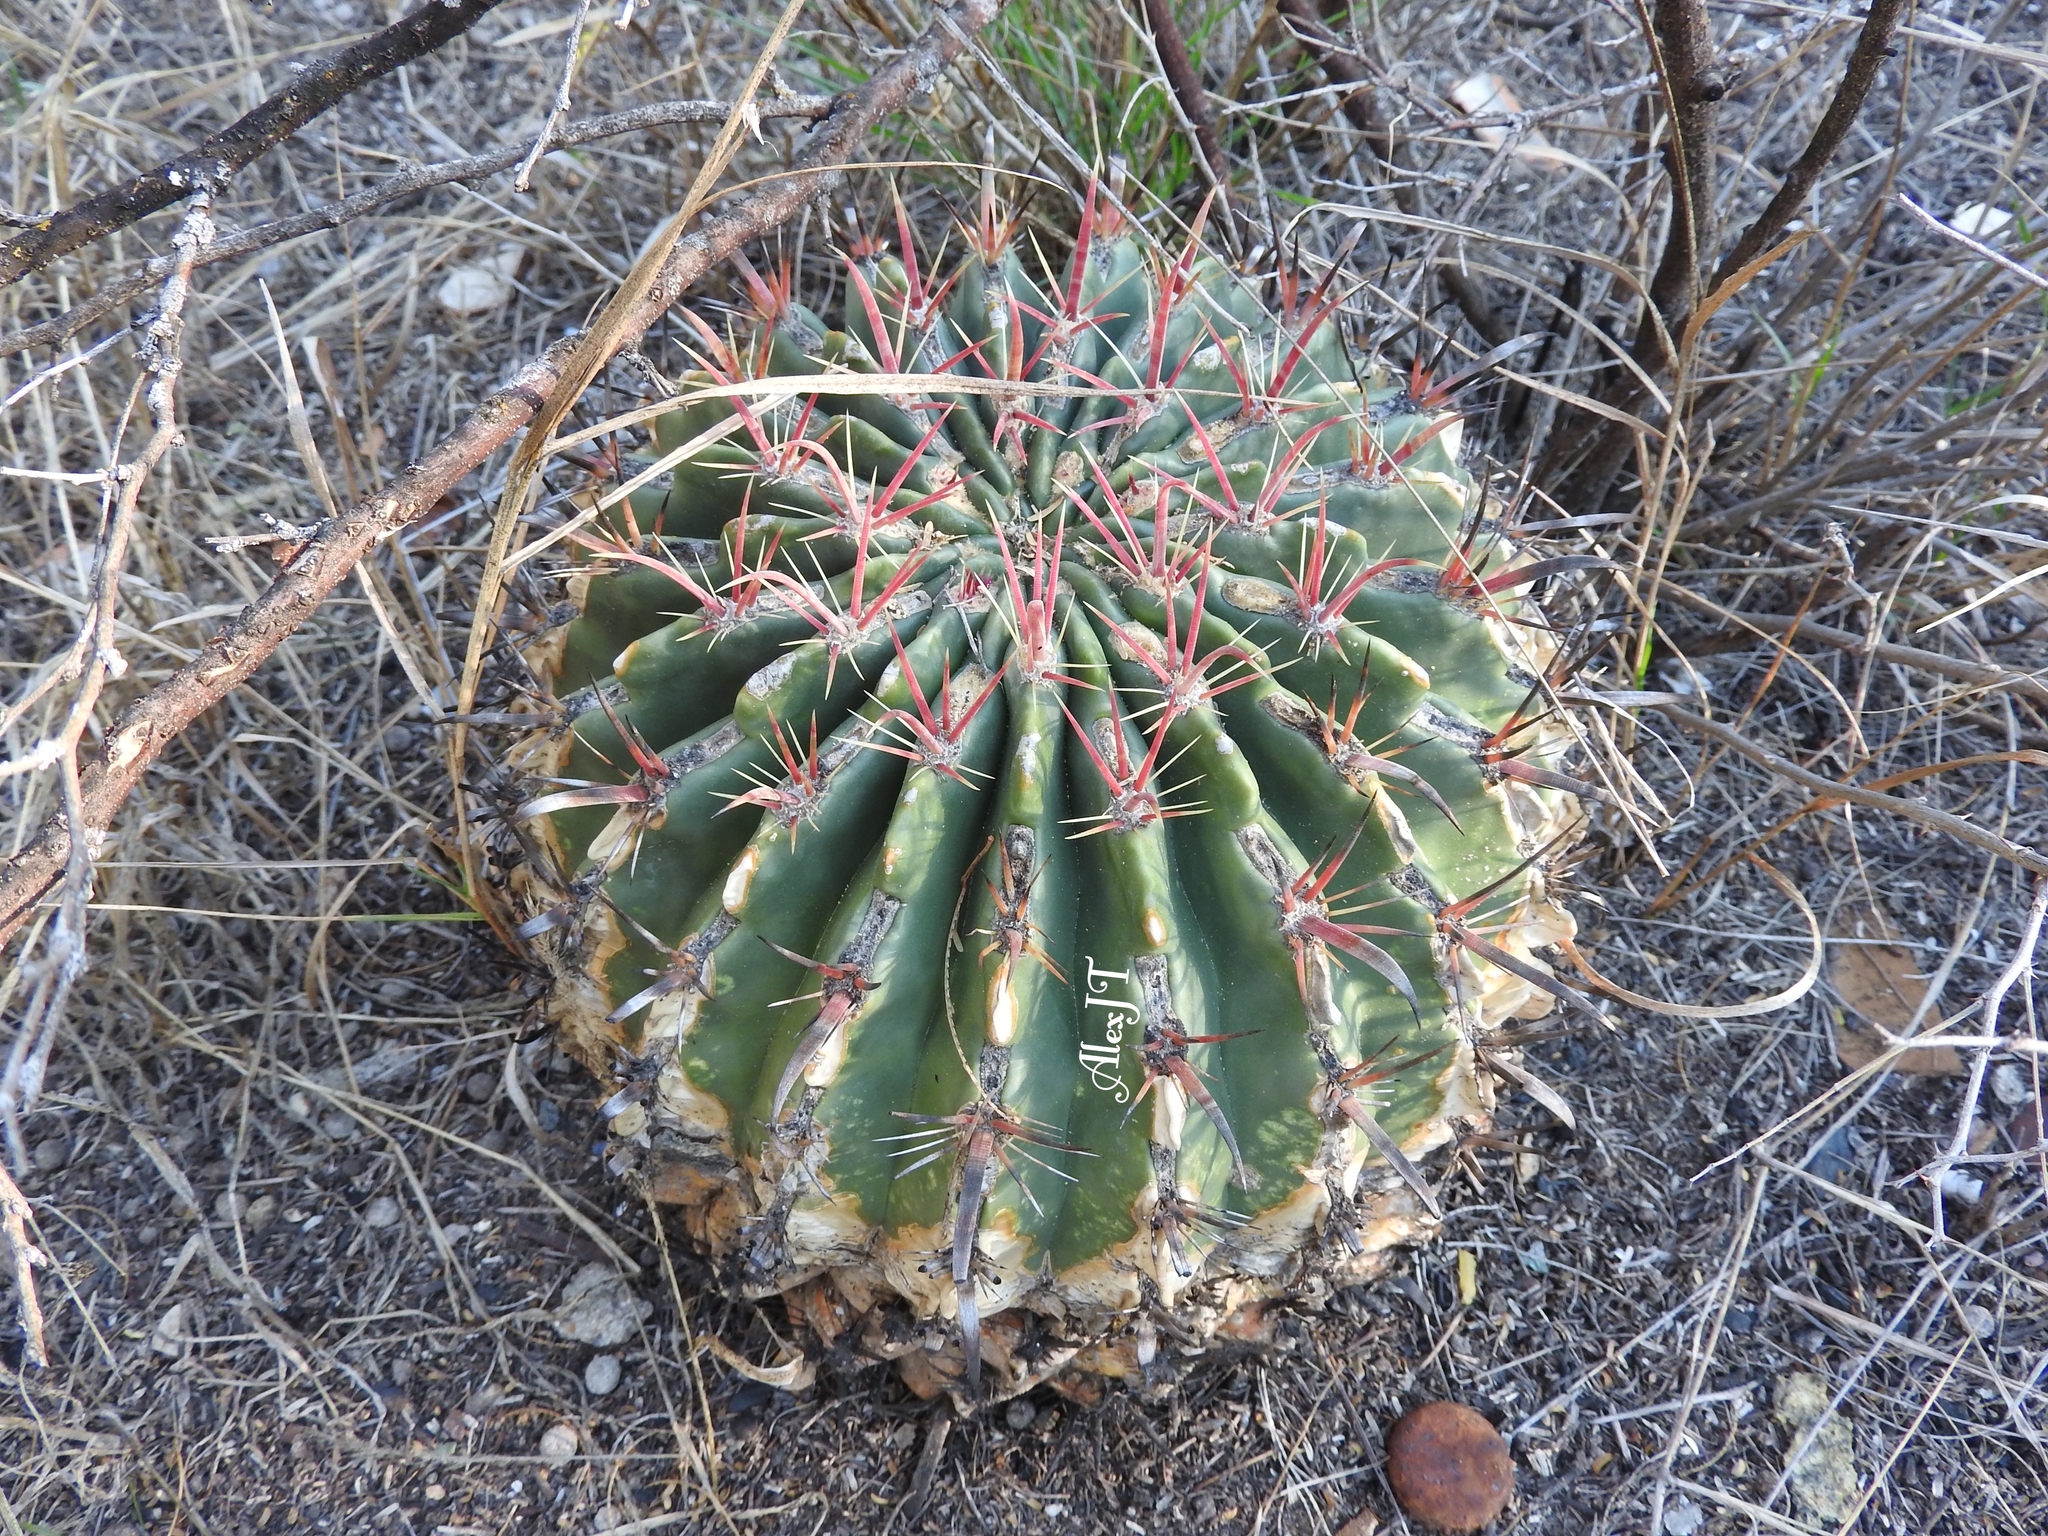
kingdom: Plantae
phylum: Tracheophyta
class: Magnoliopsida
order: Caryophyllales
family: Cactaceae
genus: Ferocactus
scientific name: Ferocactus latispinus
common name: Devil's-tongue cactus
